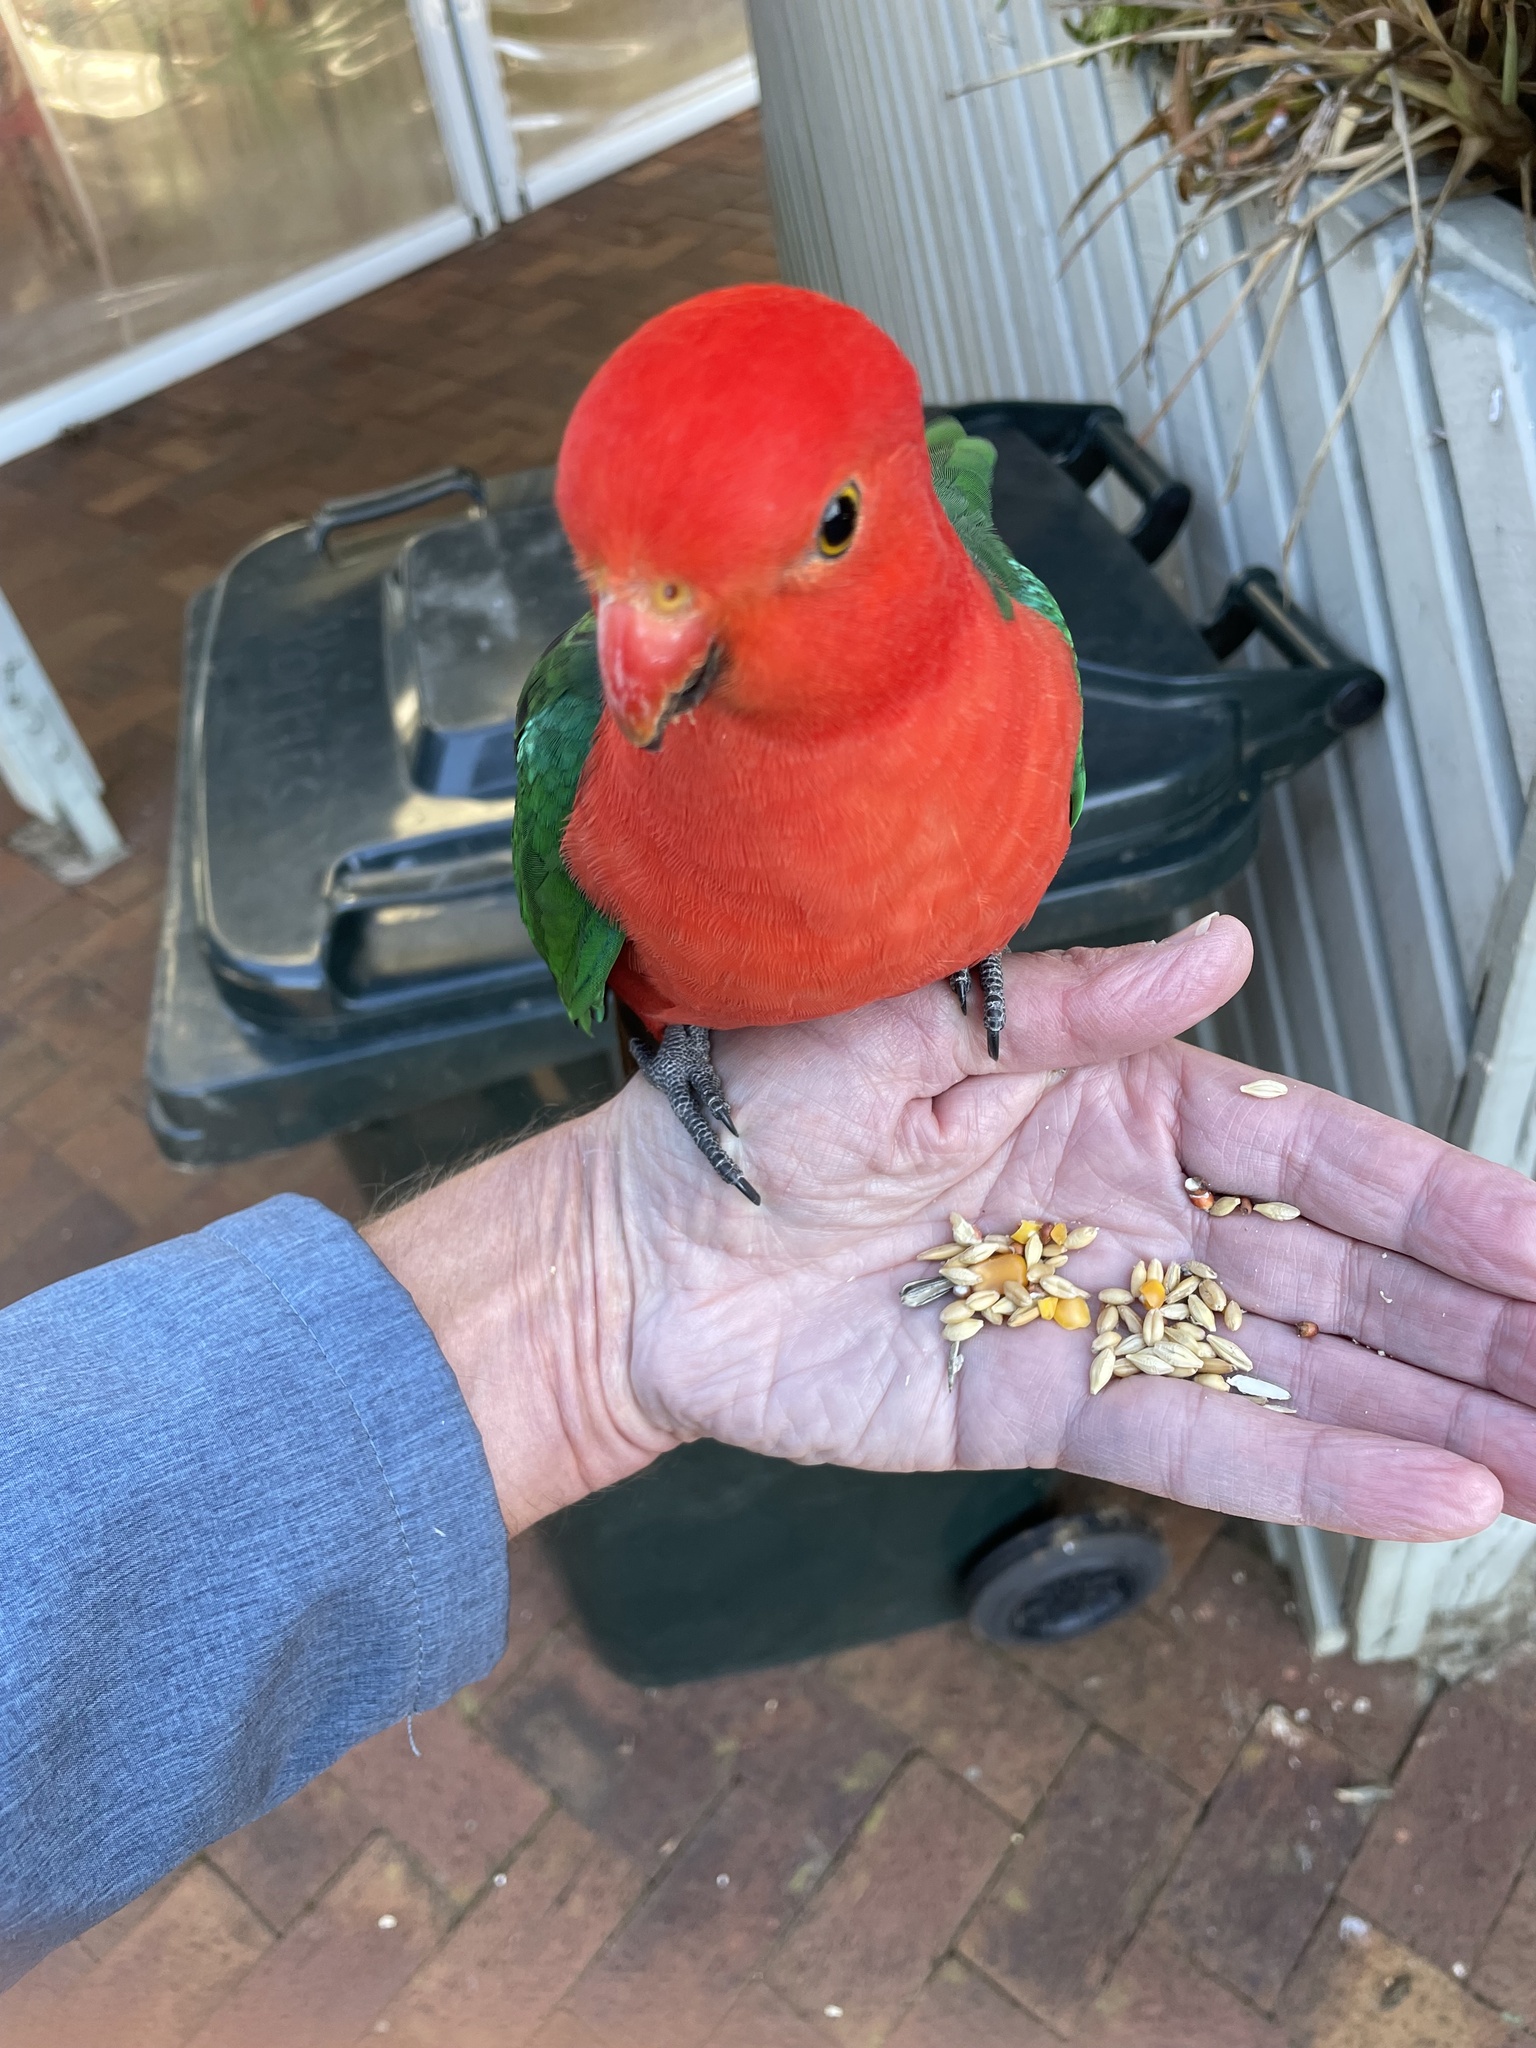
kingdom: Animalia
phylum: Chordata
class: Aves
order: Psittaciformes
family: Psittacidae
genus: Alisterus
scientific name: Alisterus scapularis
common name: Australian king parrot
